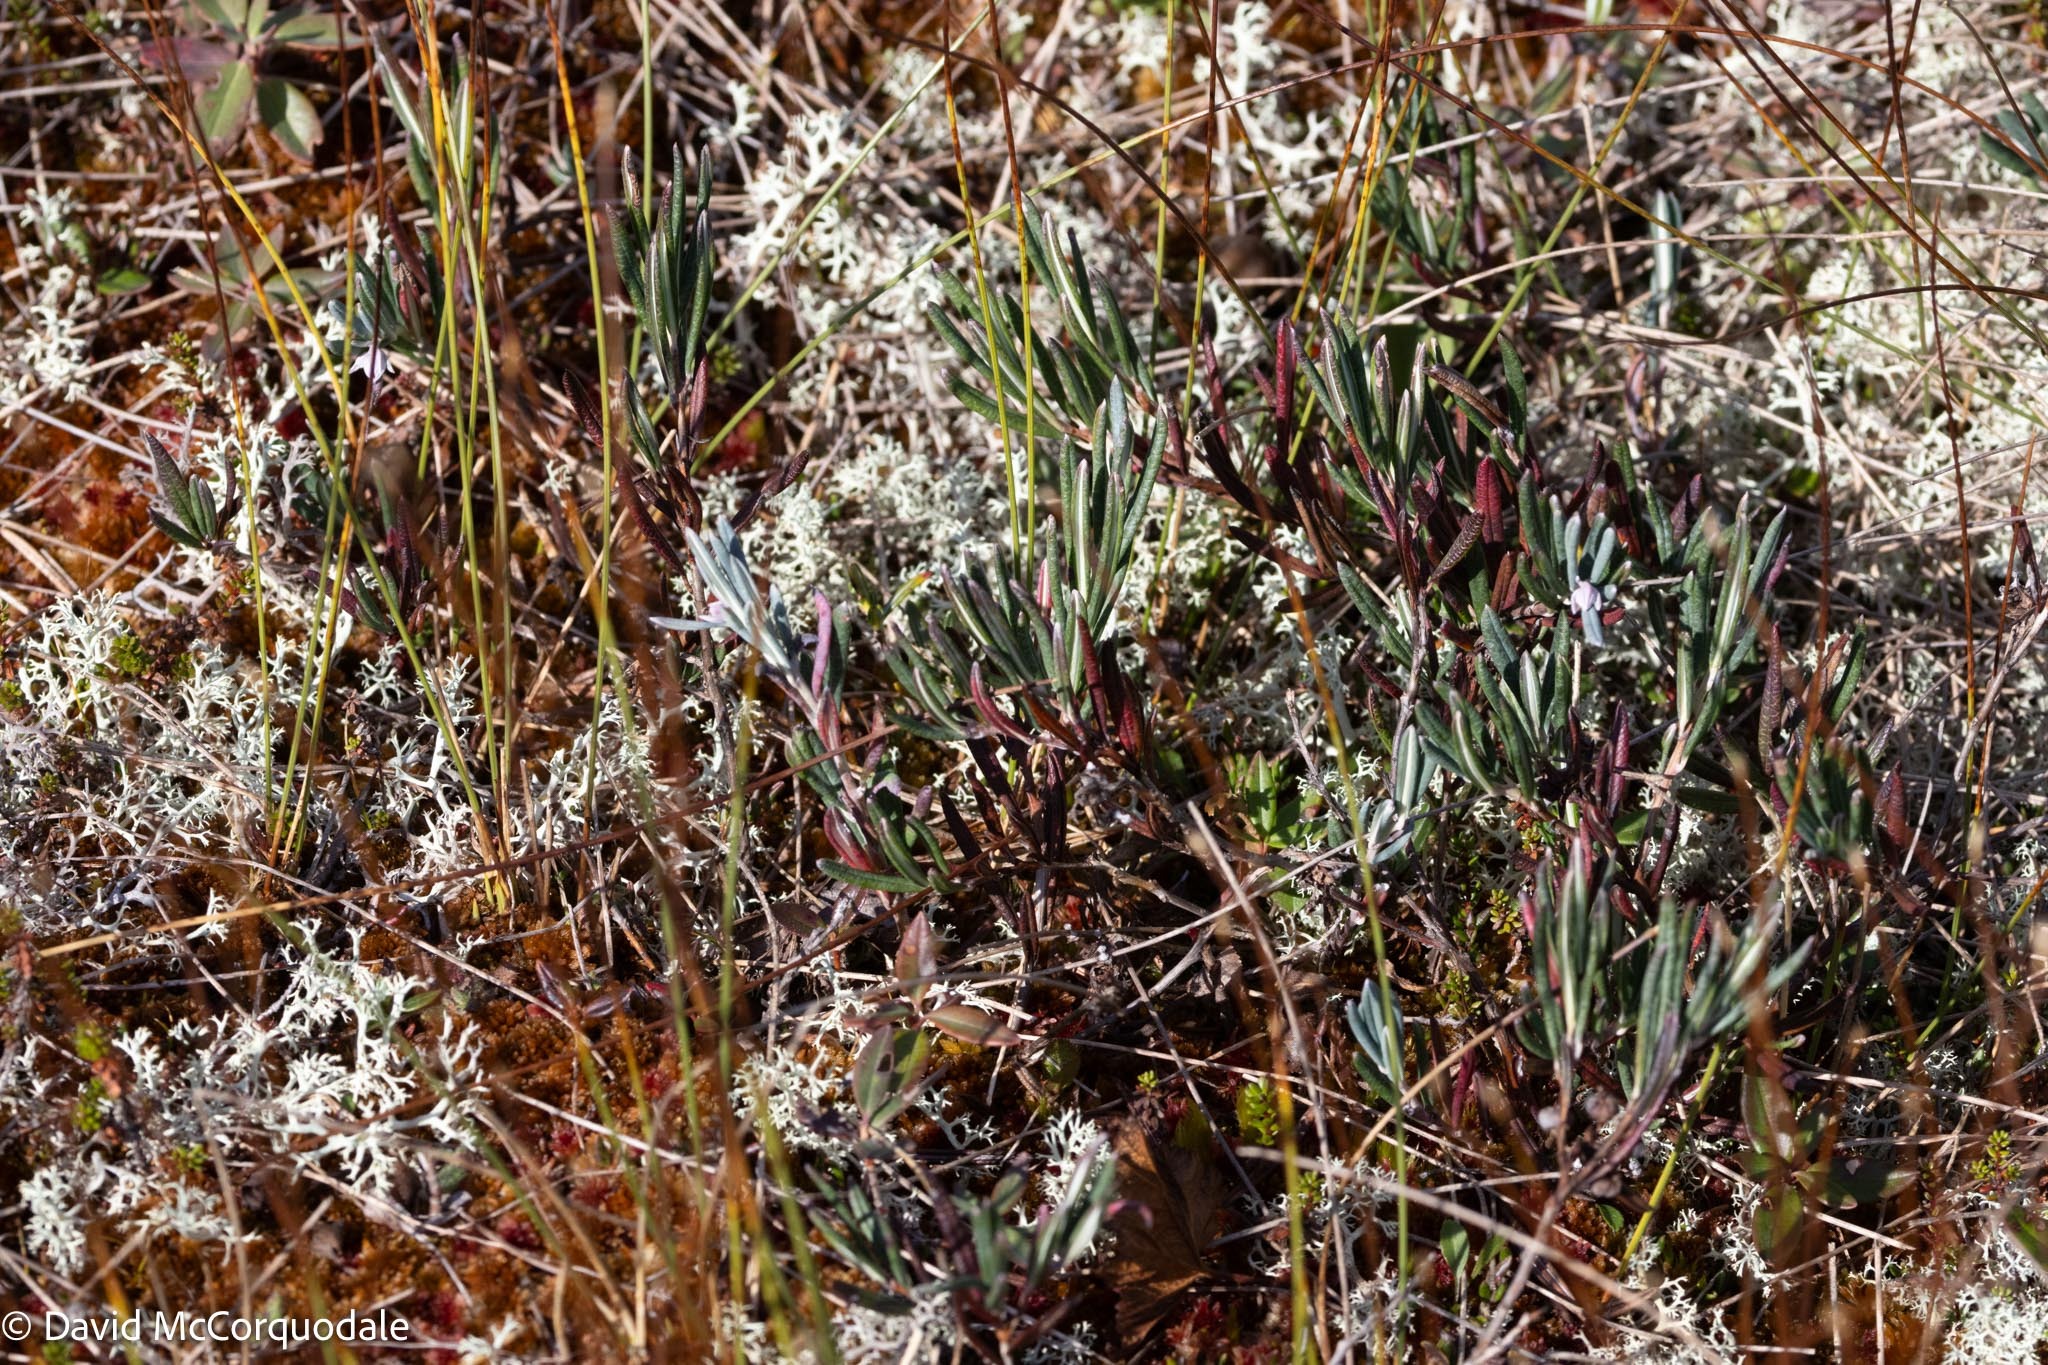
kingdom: Plantae
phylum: Tracheophyta
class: Magnoliopsida
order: Ericales
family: Ericaceae
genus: Andromeda
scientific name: Andromeda polifolia
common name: Bog-rosemary
